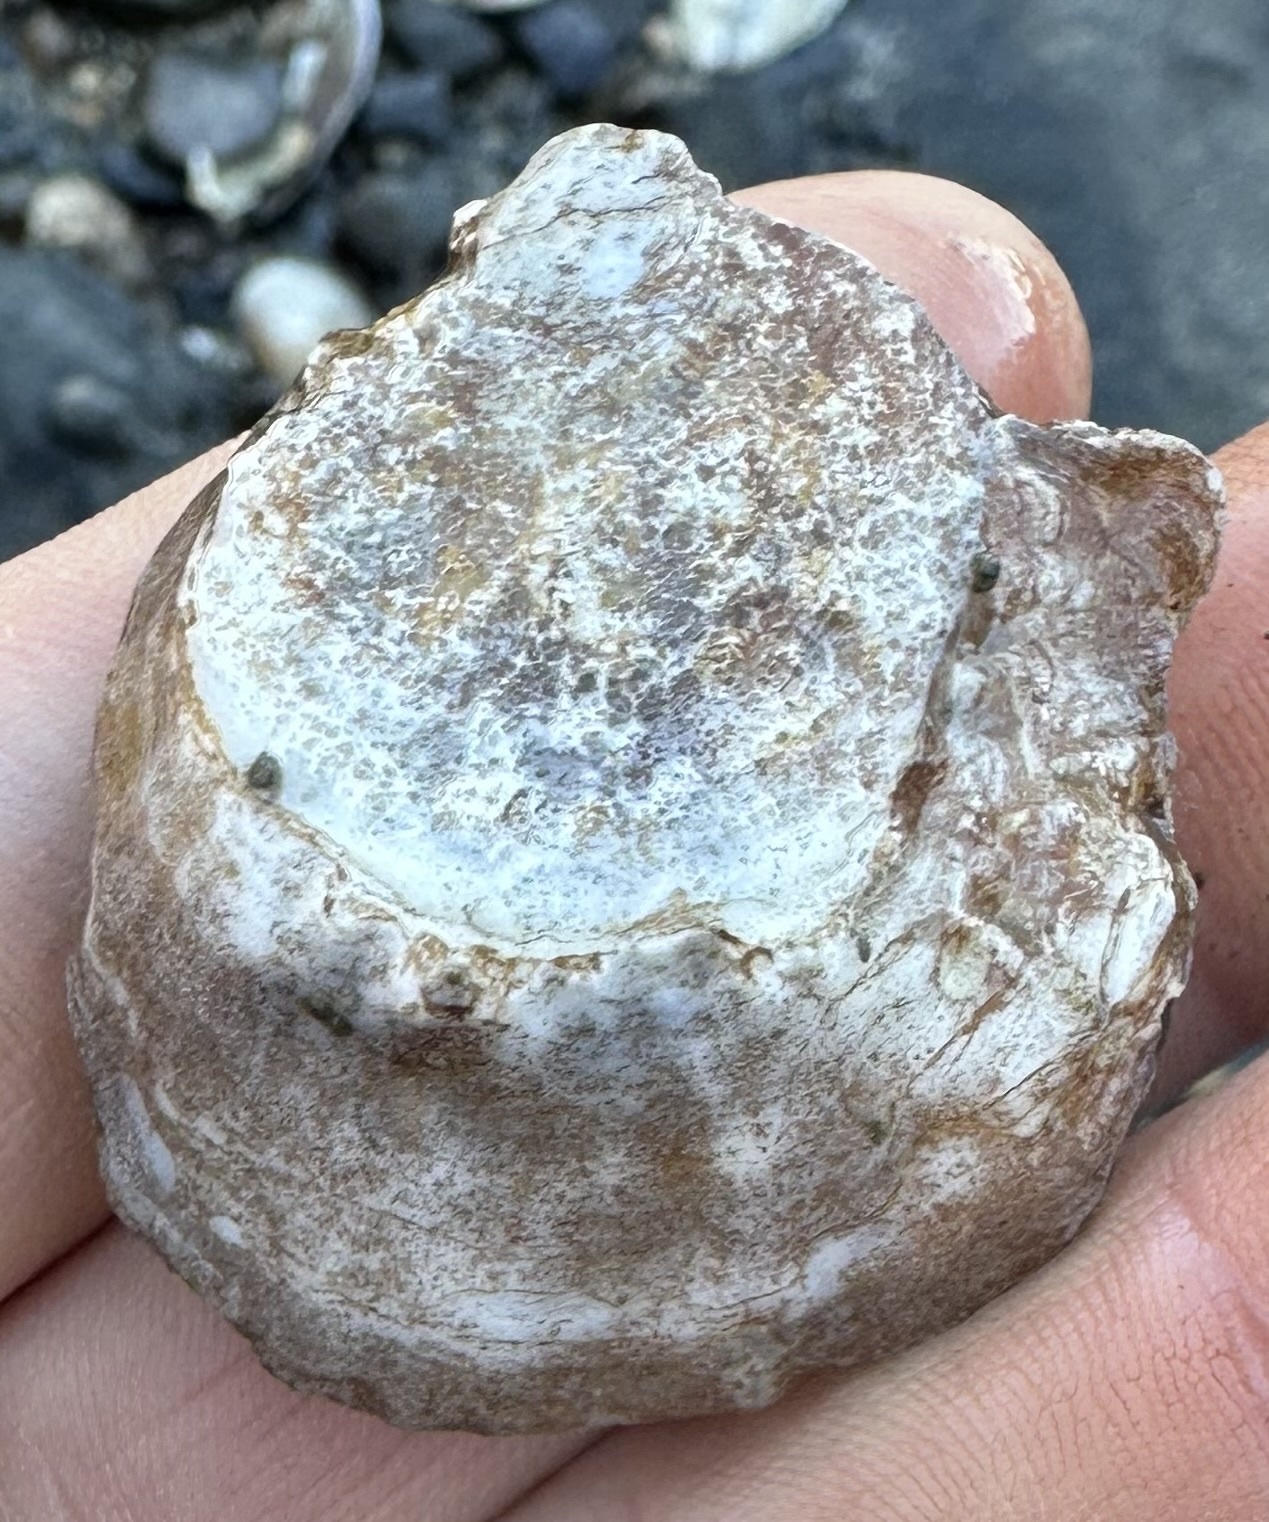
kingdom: Animalia
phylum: Mollusca
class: Bivalvia
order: Ostreida
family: Ostreidae
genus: Crassostrea
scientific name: Crassostrea virginica
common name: American oyster
